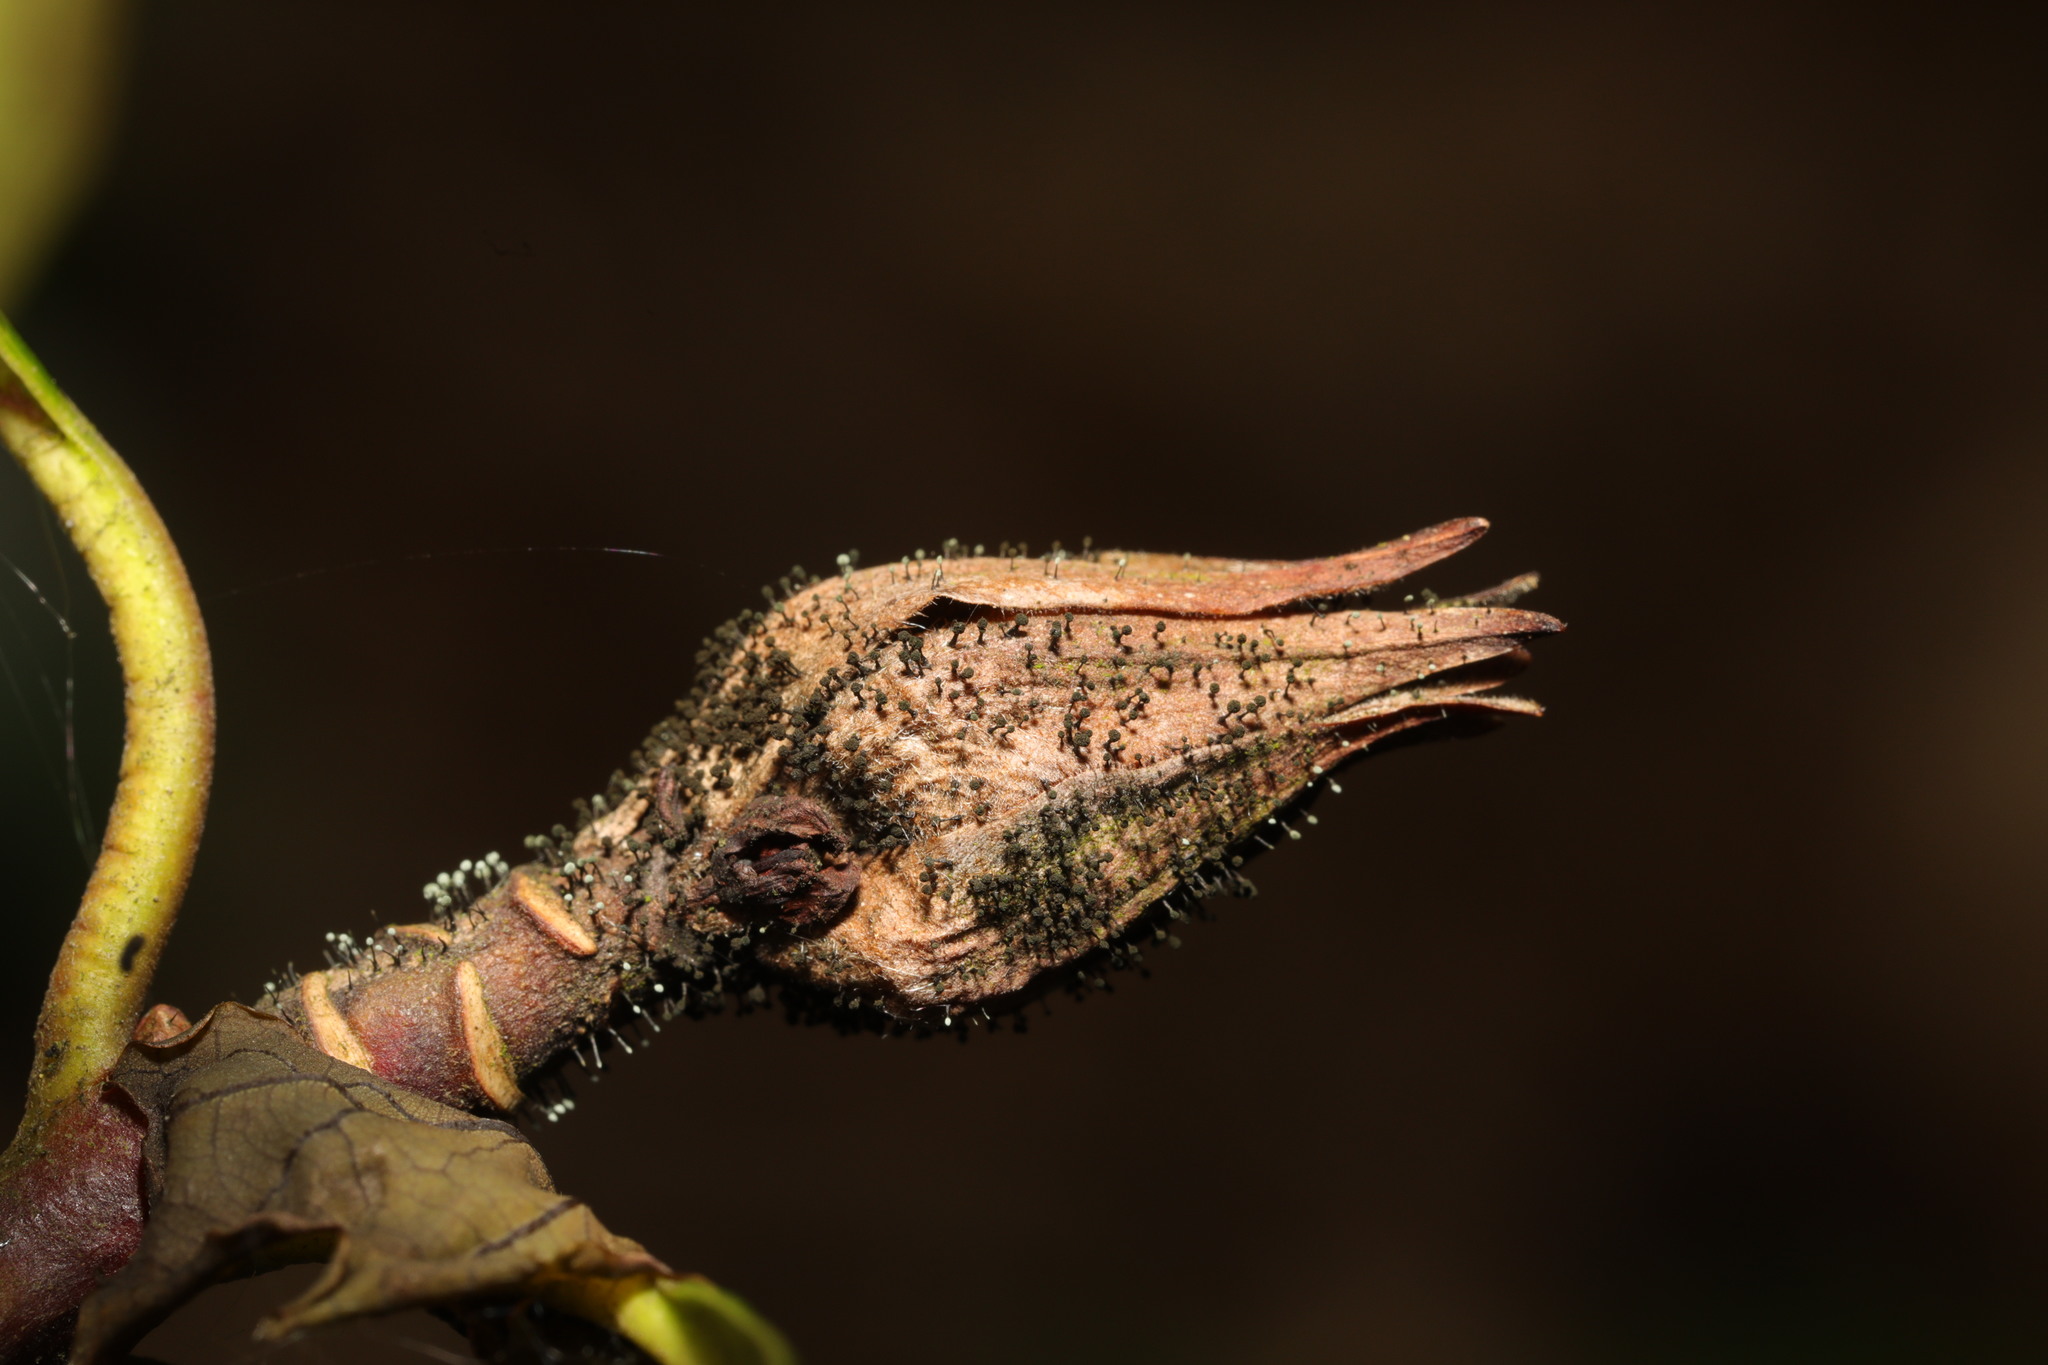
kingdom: Fungi
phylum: Ascomycota
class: Dothideomycetes
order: Pleosporales
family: Melanommataceae
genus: Seifertia
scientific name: Seifertia azaleae
